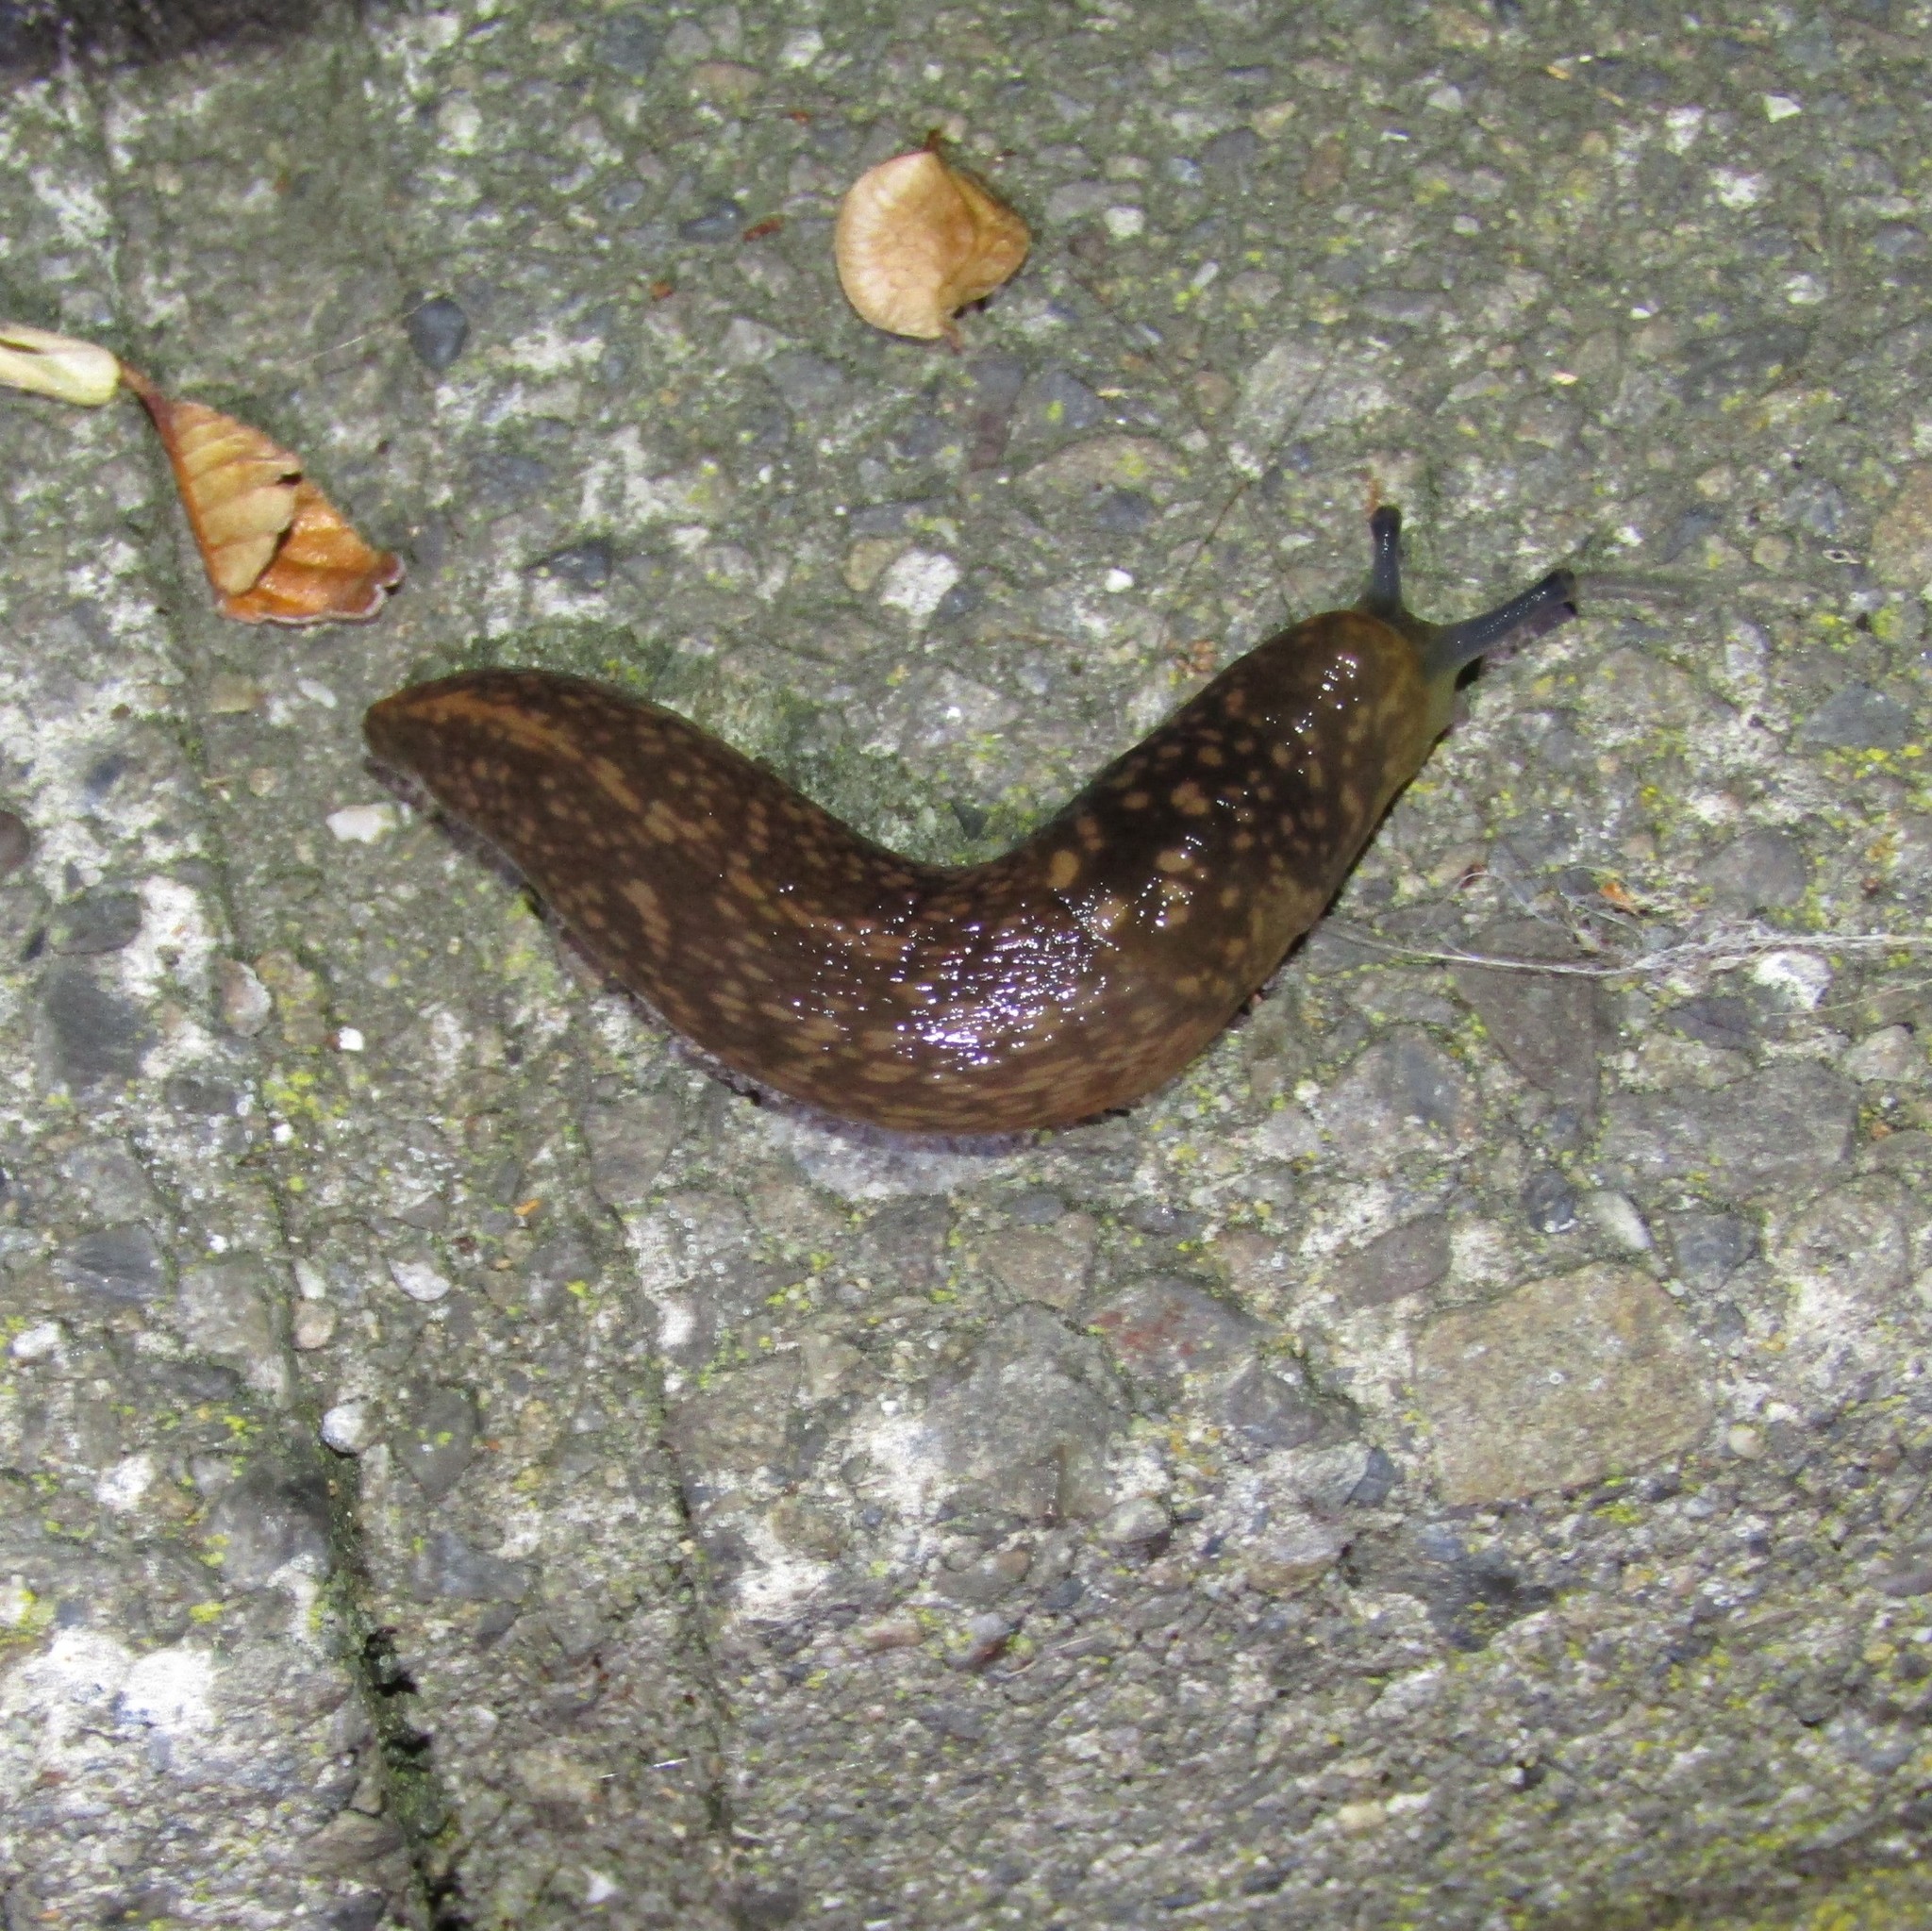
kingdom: Animalia
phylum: Mollusca
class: Gastropoda
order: Stylommatophora
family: Limacidae
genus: Limacus
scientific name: Limacus flavus
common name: Yellow gardenslug
